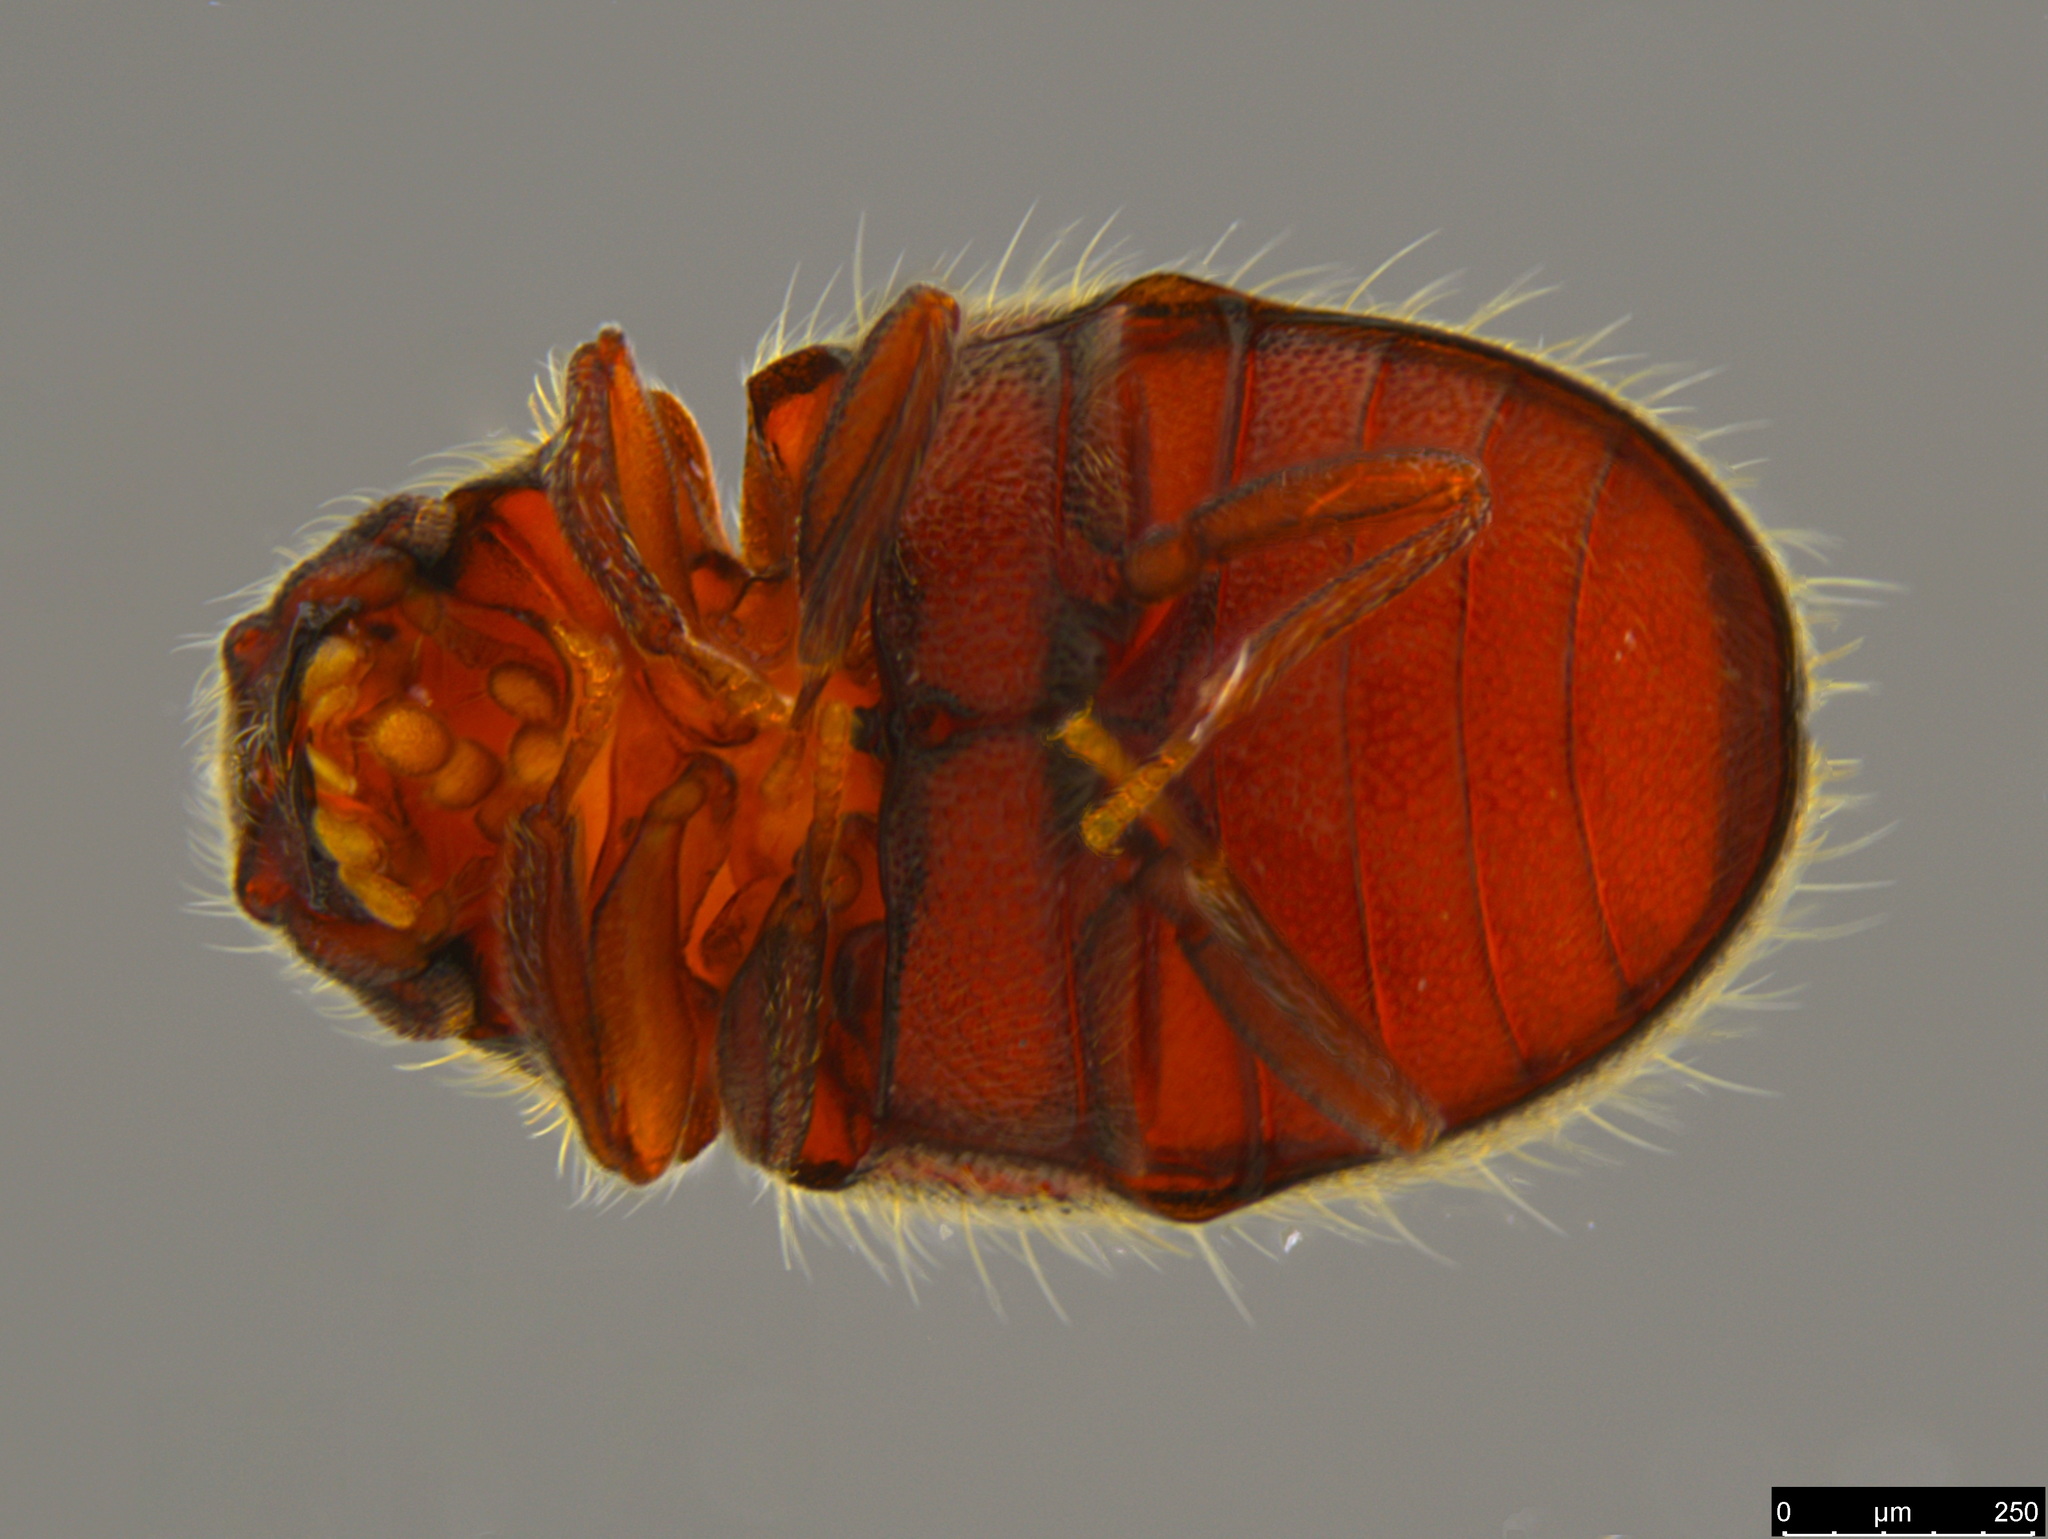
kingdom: Animalia
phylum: Arthropoda
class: Insecta
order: Coleoptera
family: Anobiidae
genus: Stagetus
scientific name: Stagetus
